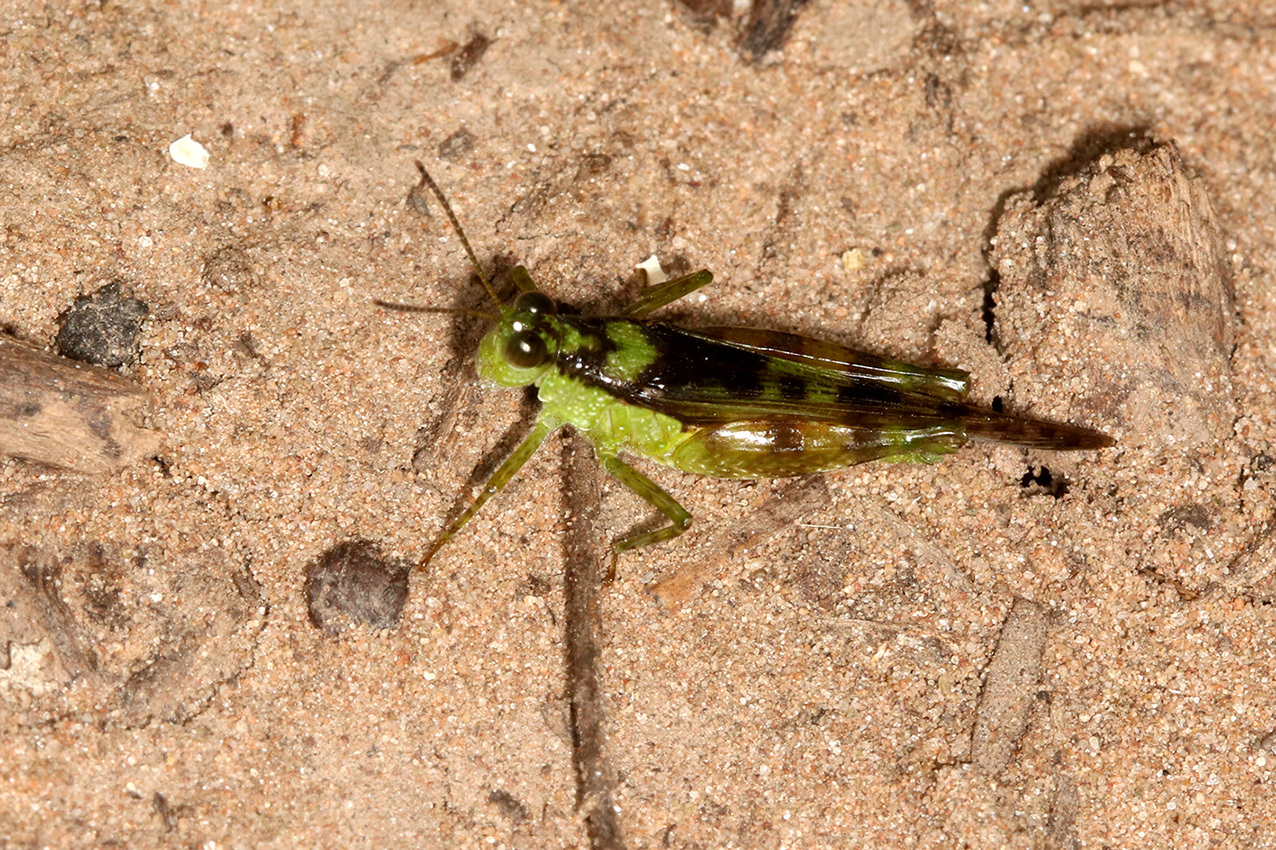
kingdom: Animalia
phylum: Arthropoda
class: Insecta
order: Orthoptera
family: Acrididae
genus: Paulinia
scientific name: Paulinia acuminata
